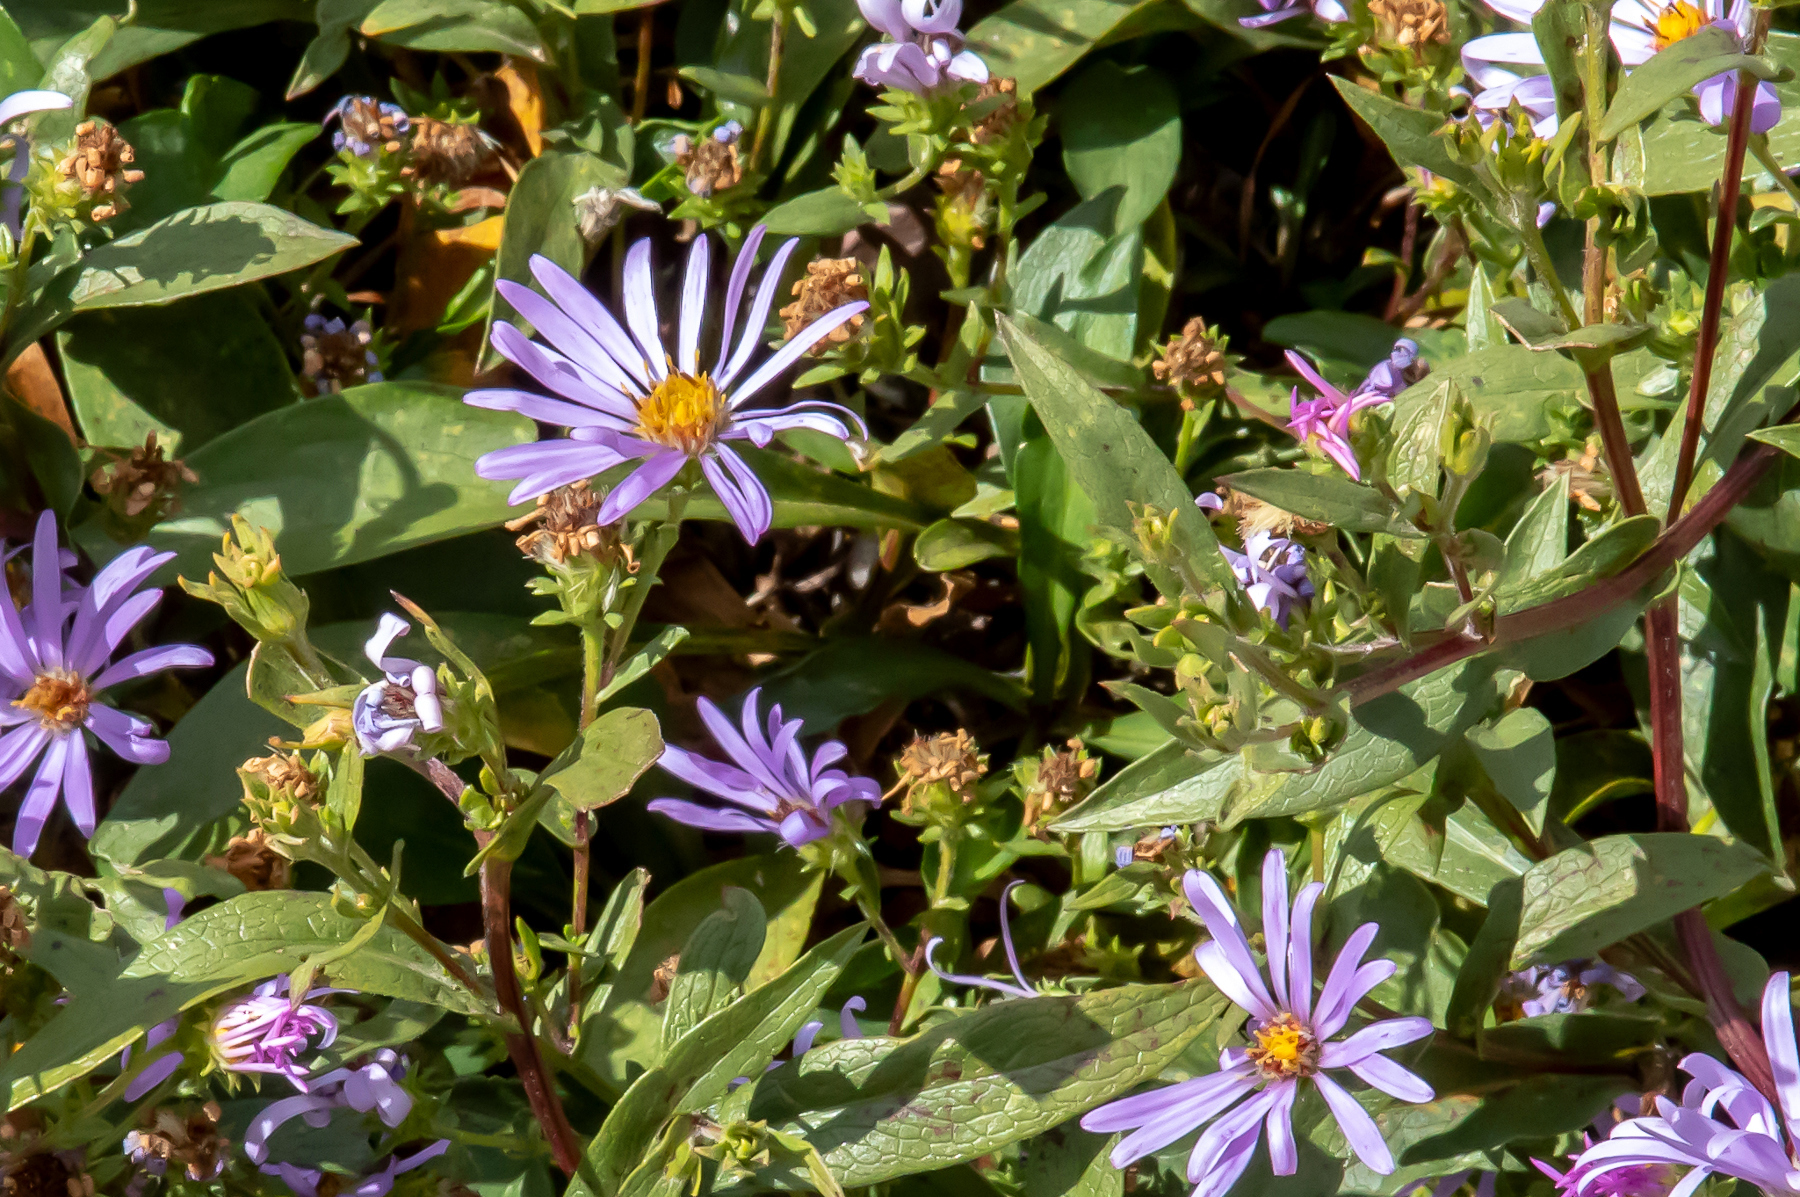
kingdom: Plantae
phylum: Tracheophyta
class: Magnoliopsida
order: Asterales
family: Asteraceae
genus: Symphyotrichum
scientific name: Symphyotrichum laeve
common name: Glaucous aster
